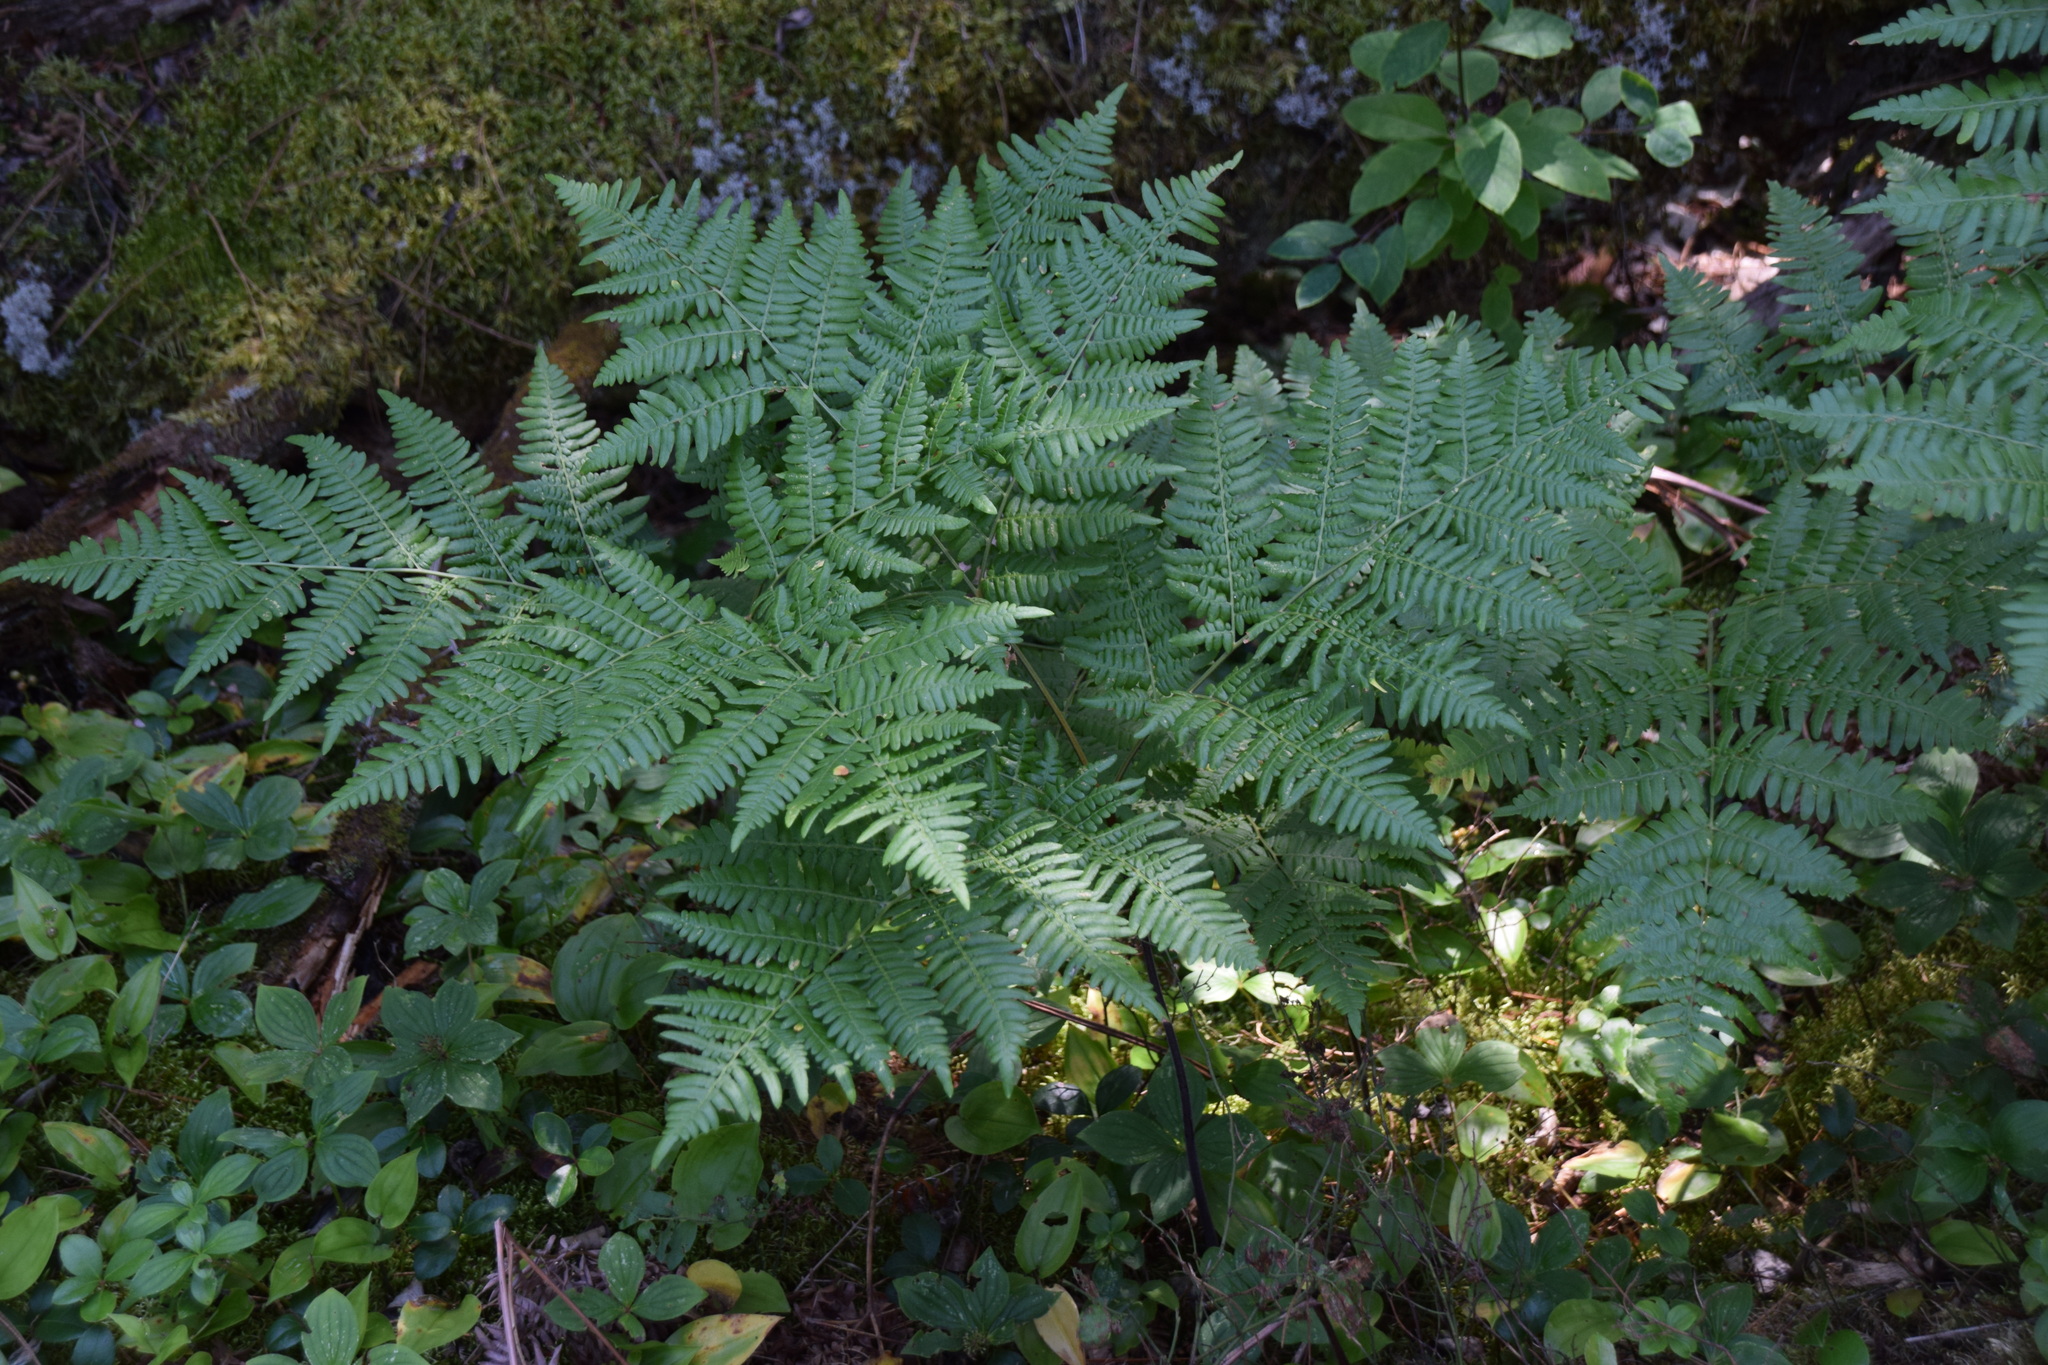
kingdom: Plantae
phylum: Tracheophyta
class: Polypodiopsida
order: Polypodiales
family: Dennstaedtiaceae
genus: Pteridium
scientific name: Pteridium aquilinum
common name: Bracken
